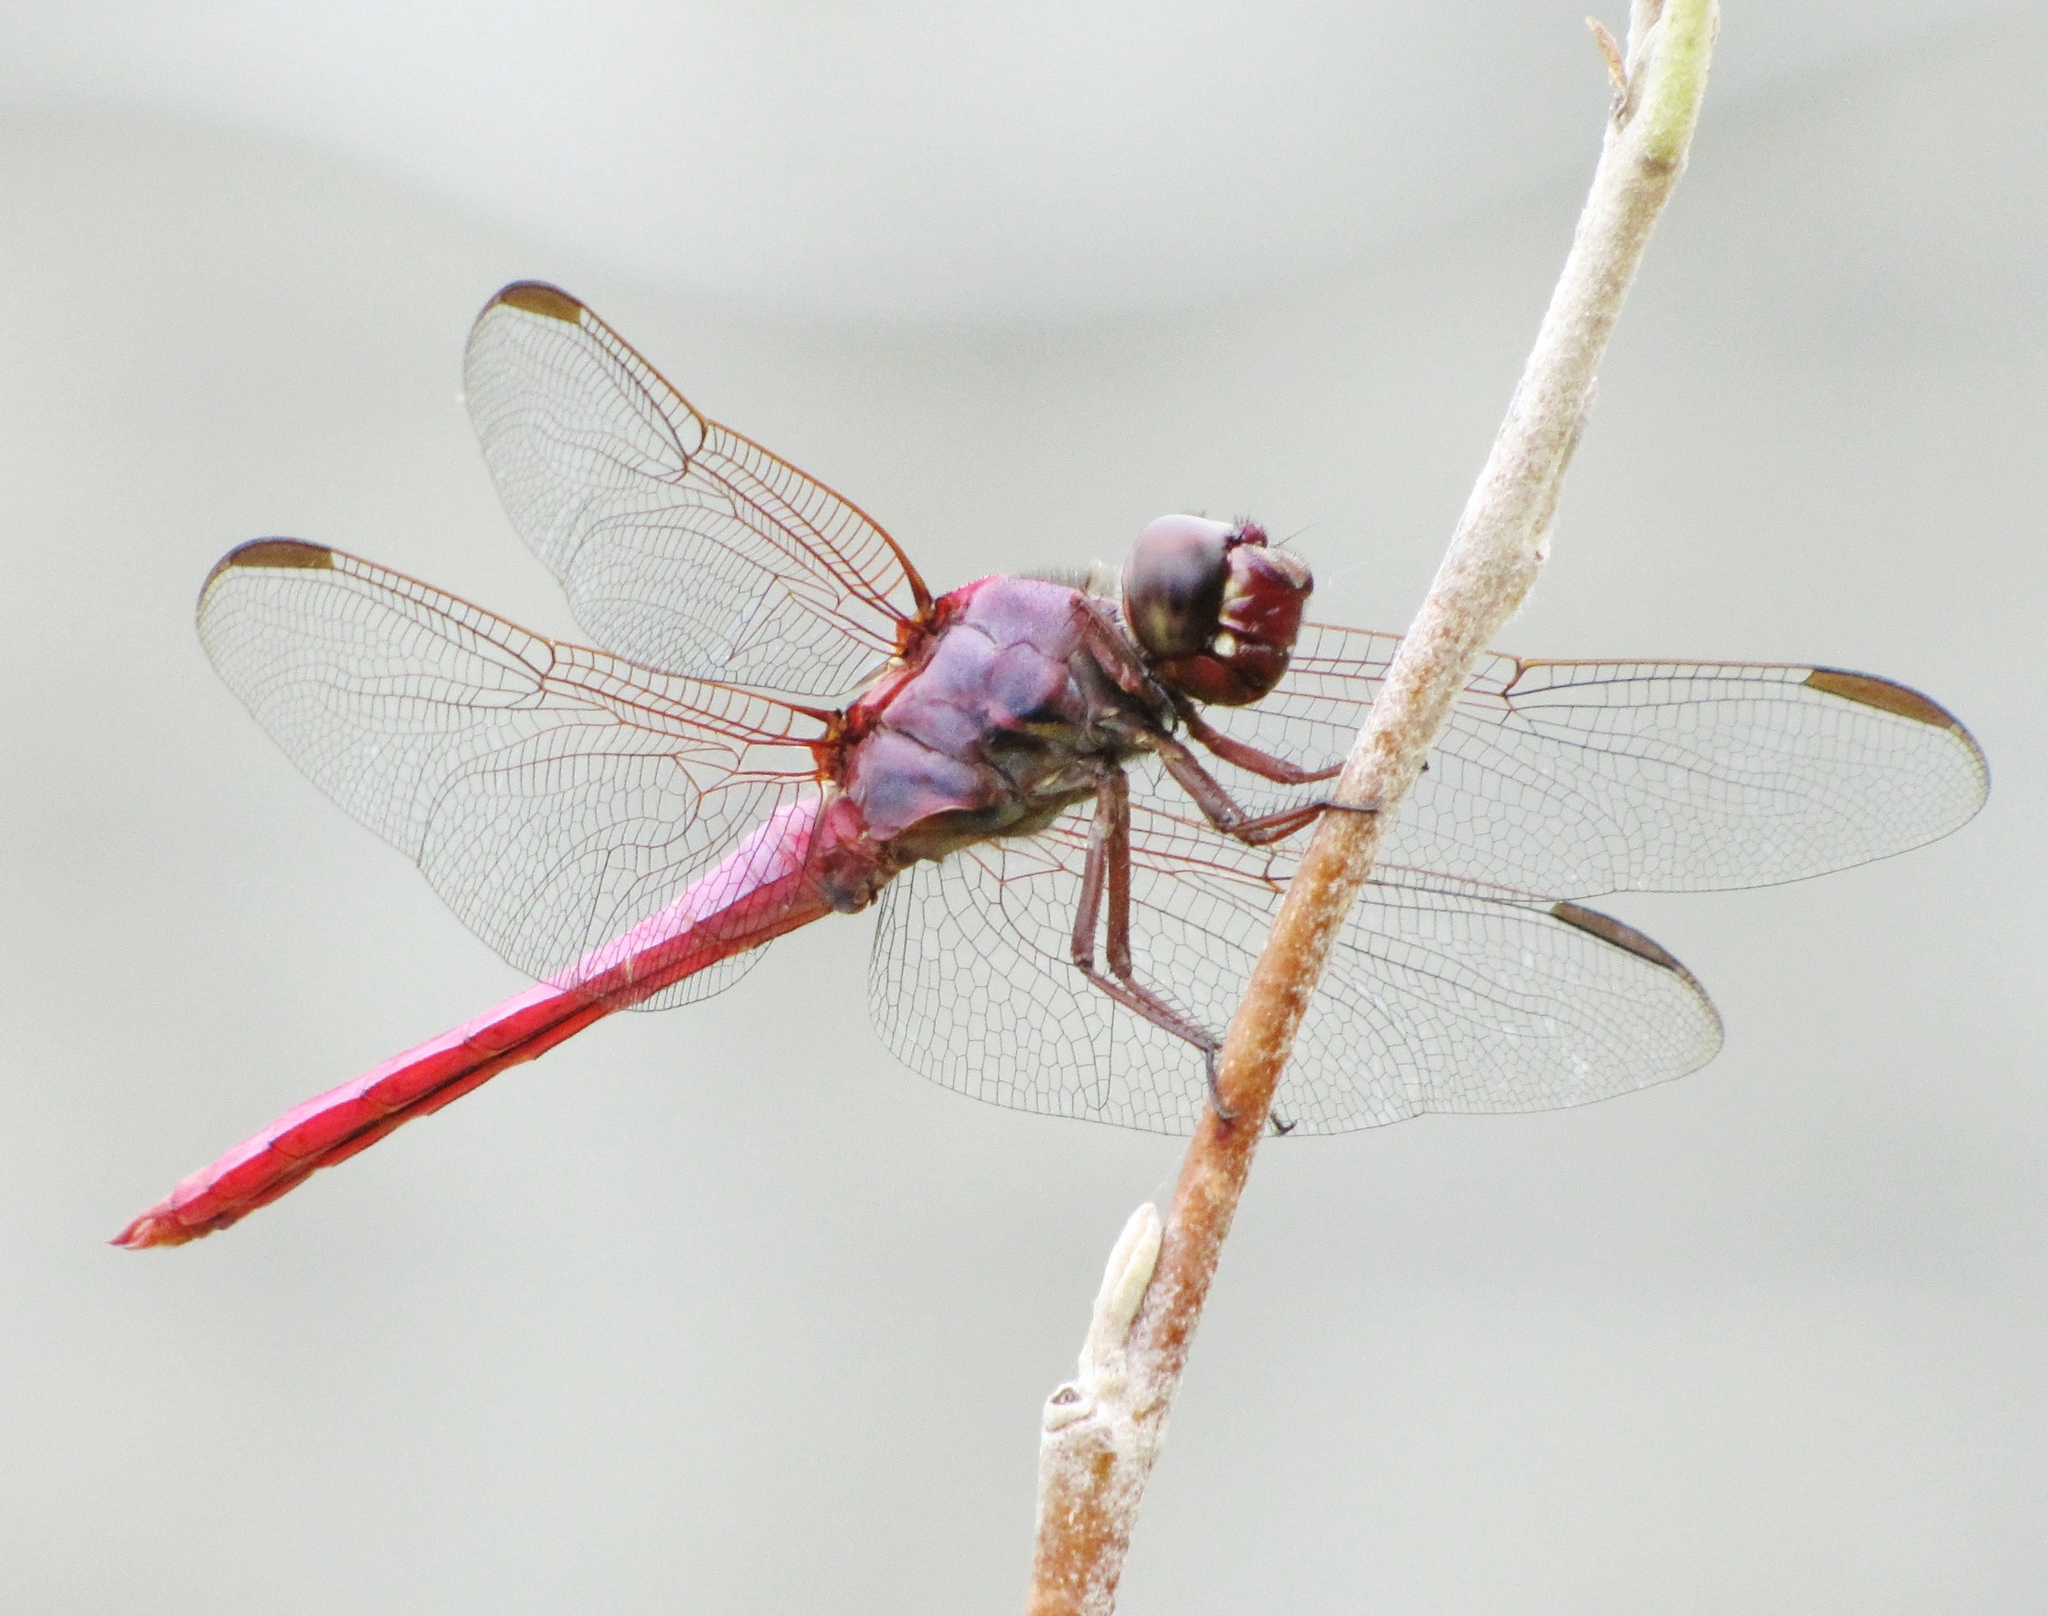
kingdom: Animalia
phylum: Arthropoda
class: Insecta
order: Odonata
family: Libellulidae
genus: Orthemis
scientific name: Orthemis ferruginea
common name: Roseate skimmer
